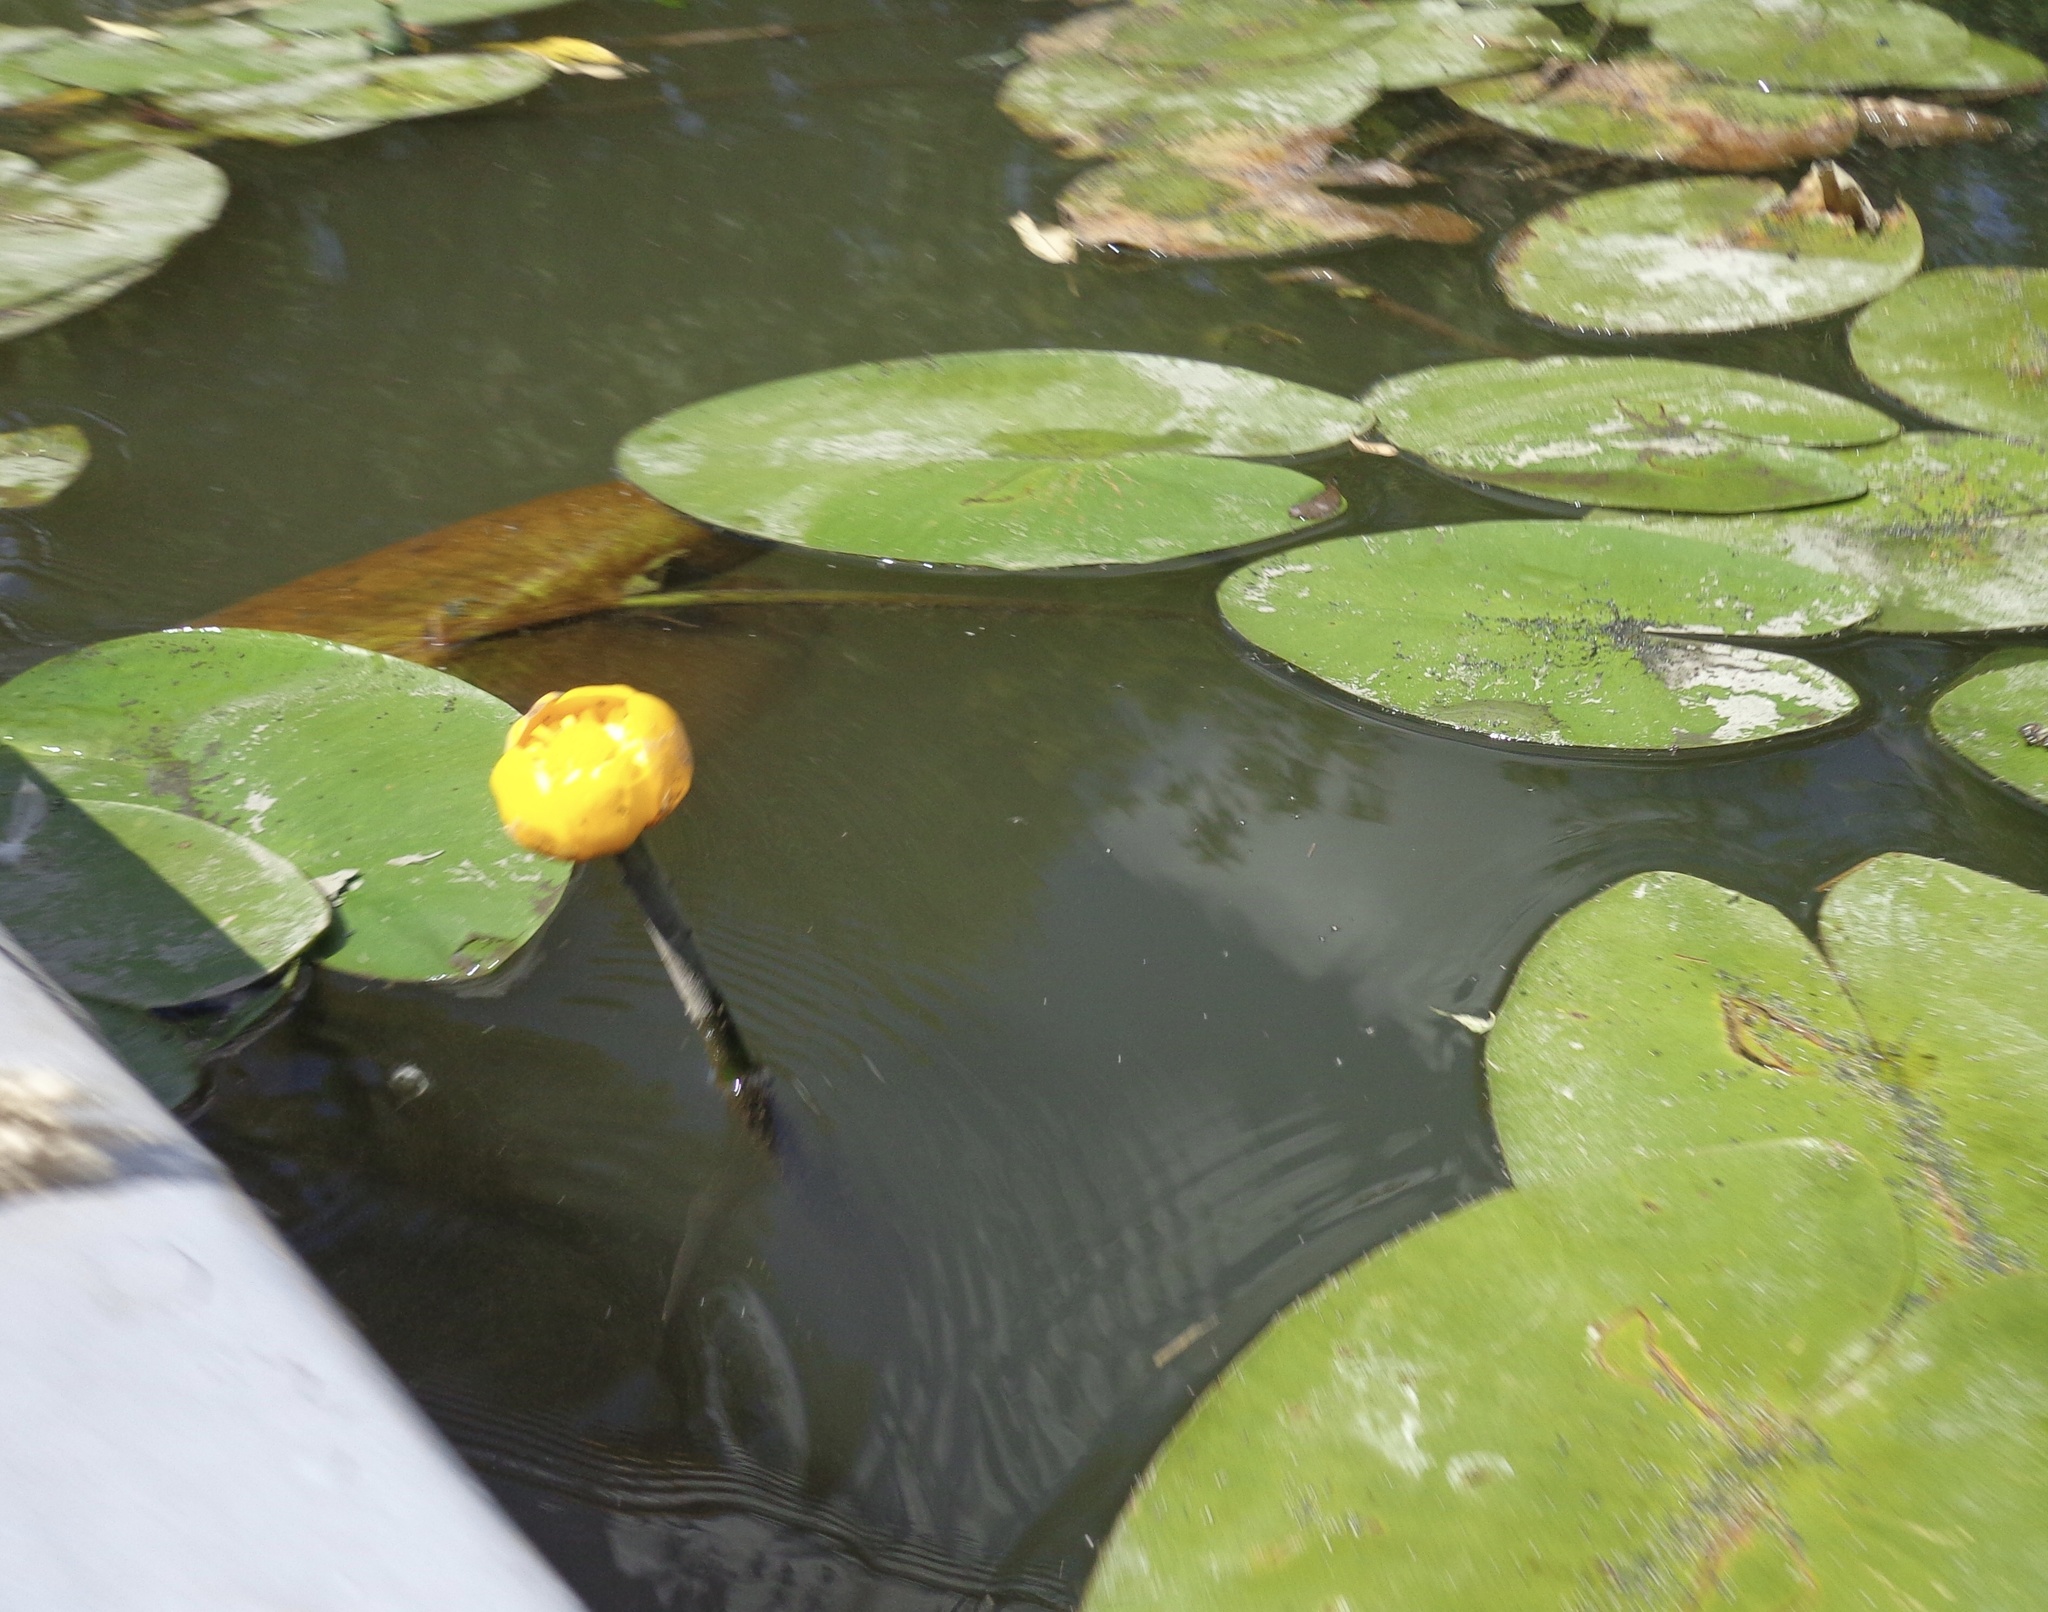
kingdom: Plantae
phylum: Tracheophyta
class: Magnoliopsida
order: Nymphaeales
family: Nymphaeaceae
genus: Nuphar
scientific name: Nuphar lutea
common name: Yellow water-lily
